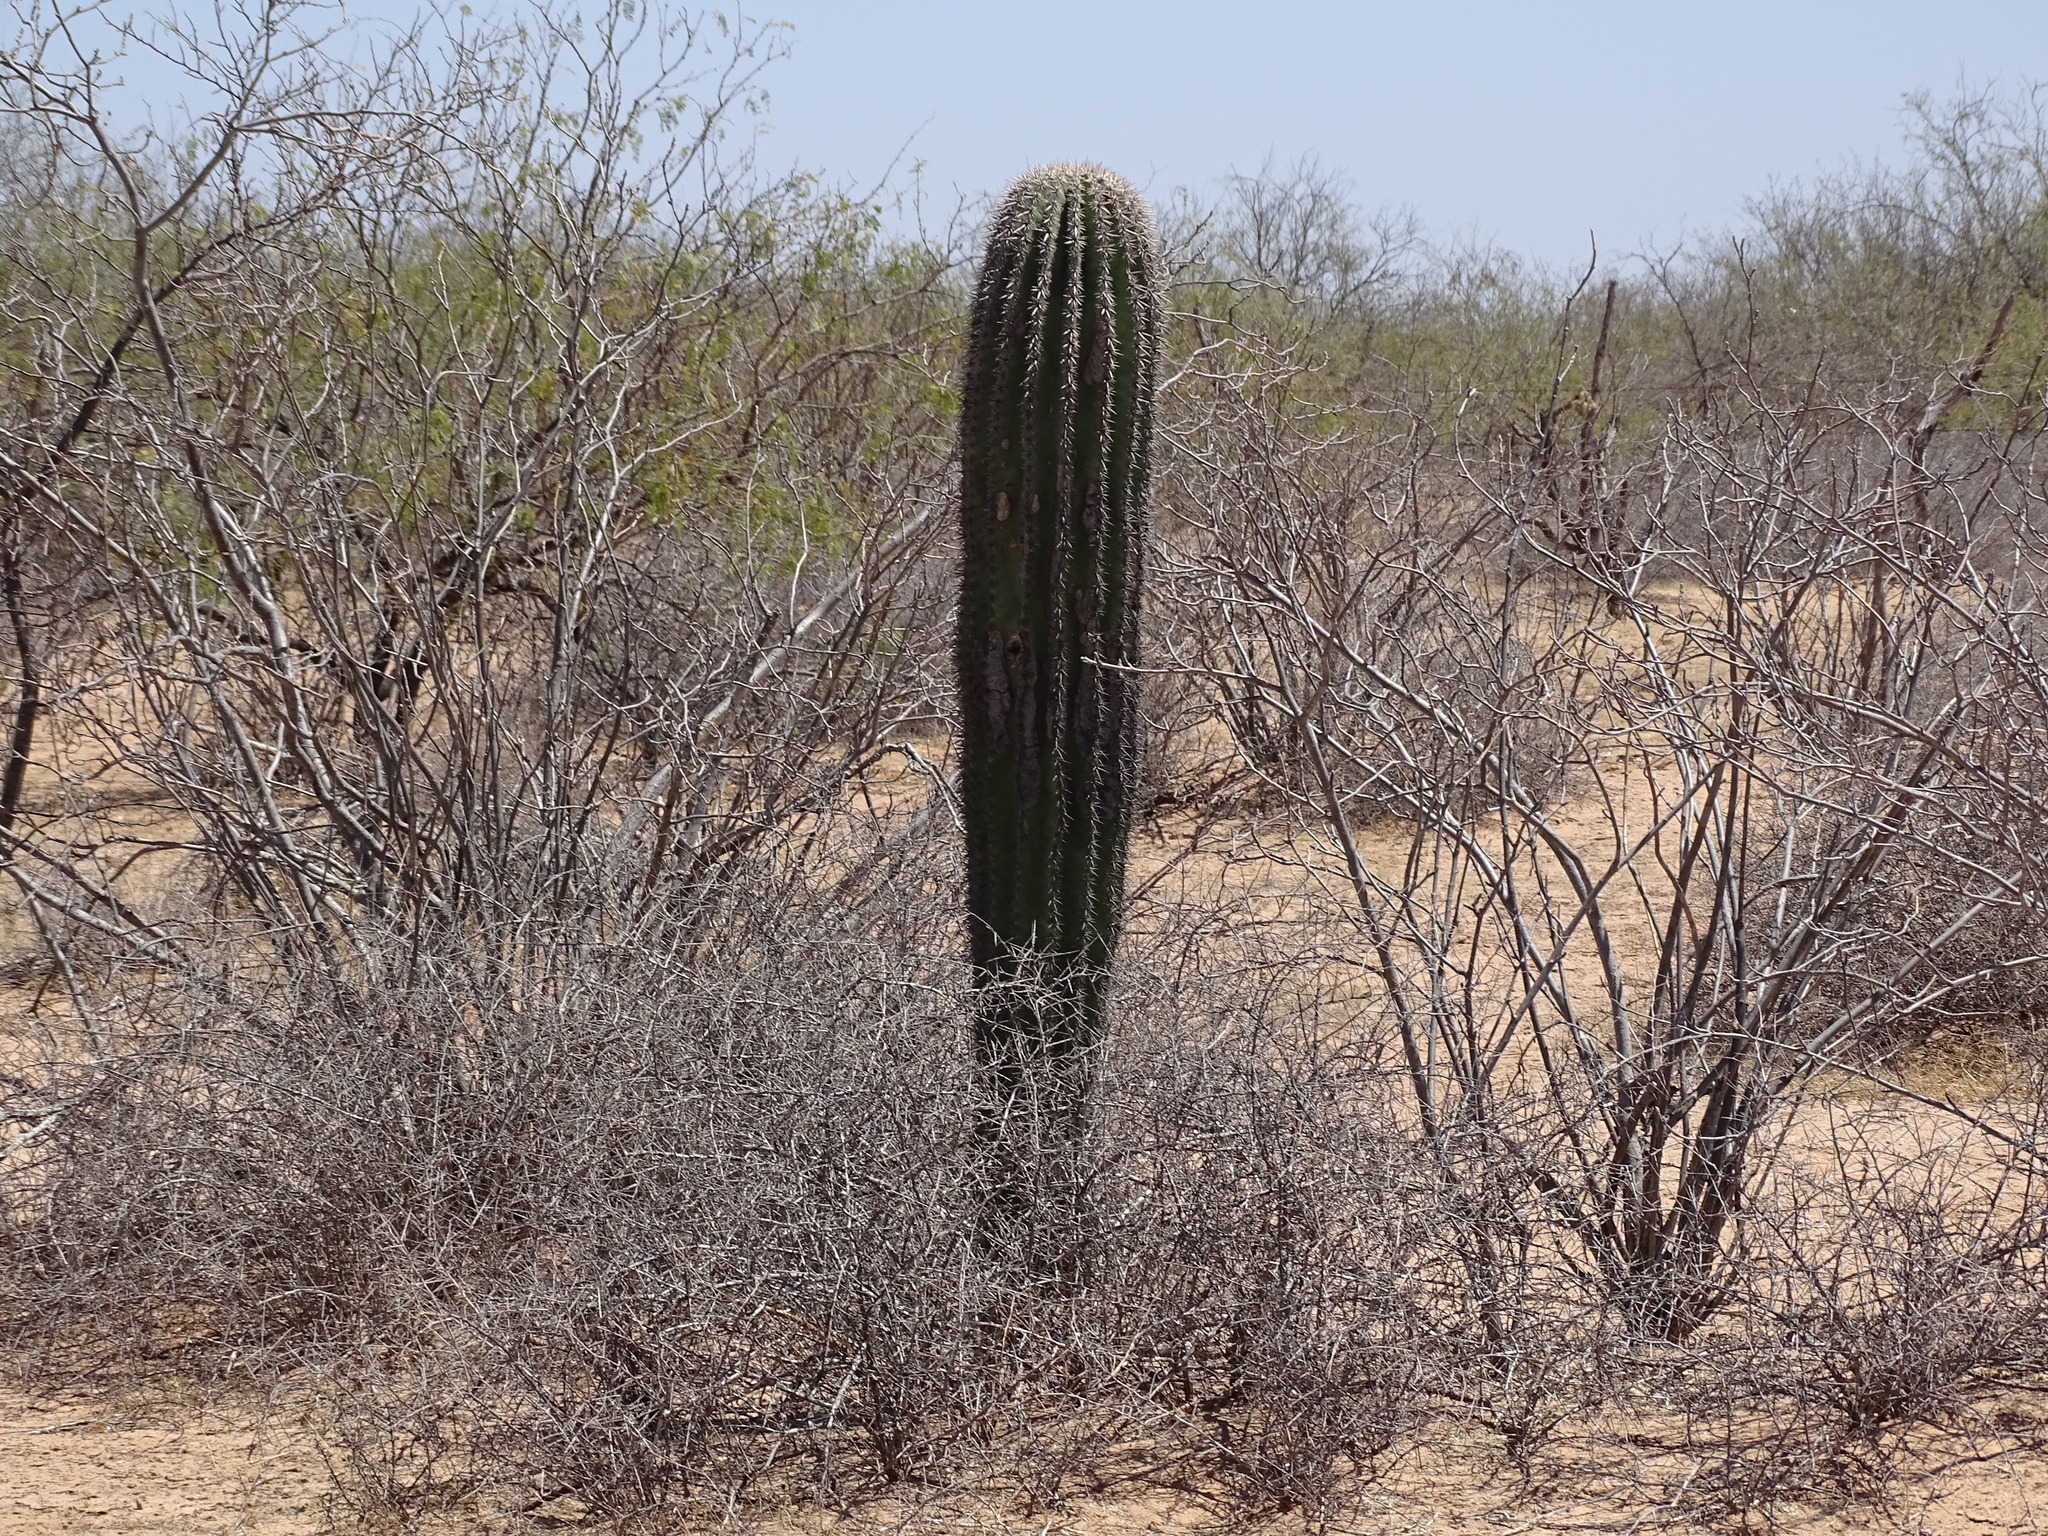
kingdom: Plantae
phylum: Tracheophyta
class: Magnoliopsida
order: Caryophyllales
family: Cactaceae
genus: Carnegiea
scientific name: Carnegiea gigantea
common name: Saguaro
